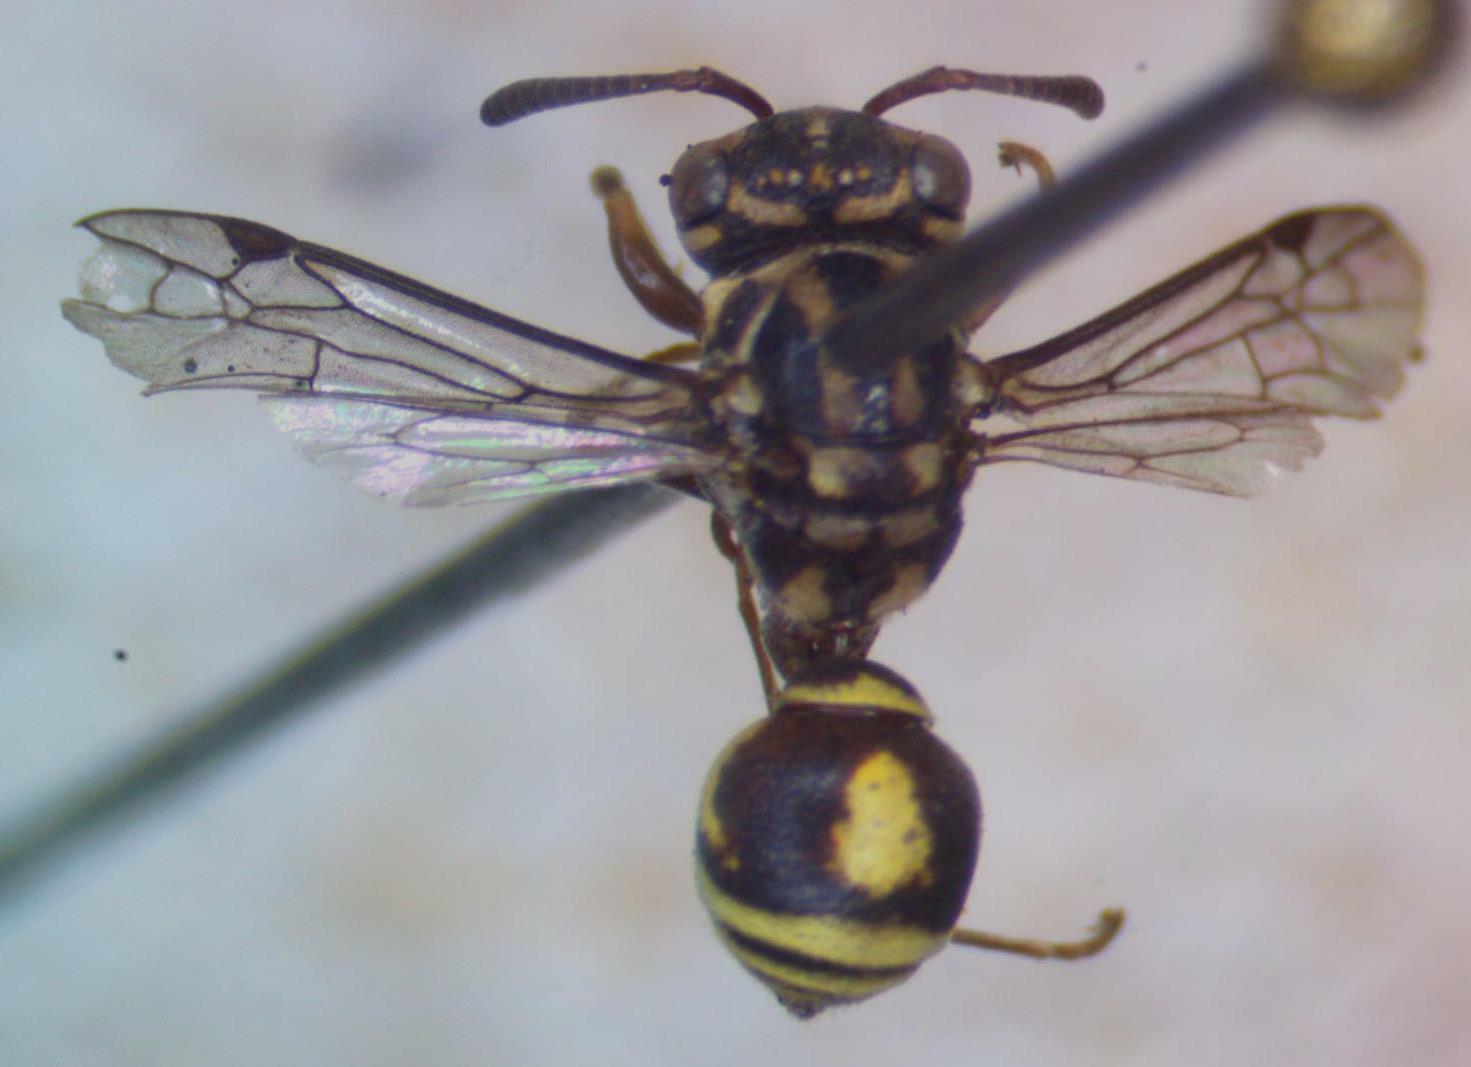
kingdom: Animalia
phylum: Arthropoda
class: Insecta
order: Hymenoptera
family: Vespidae
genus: Protopolybia
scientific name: Protopolybia wheeleri
